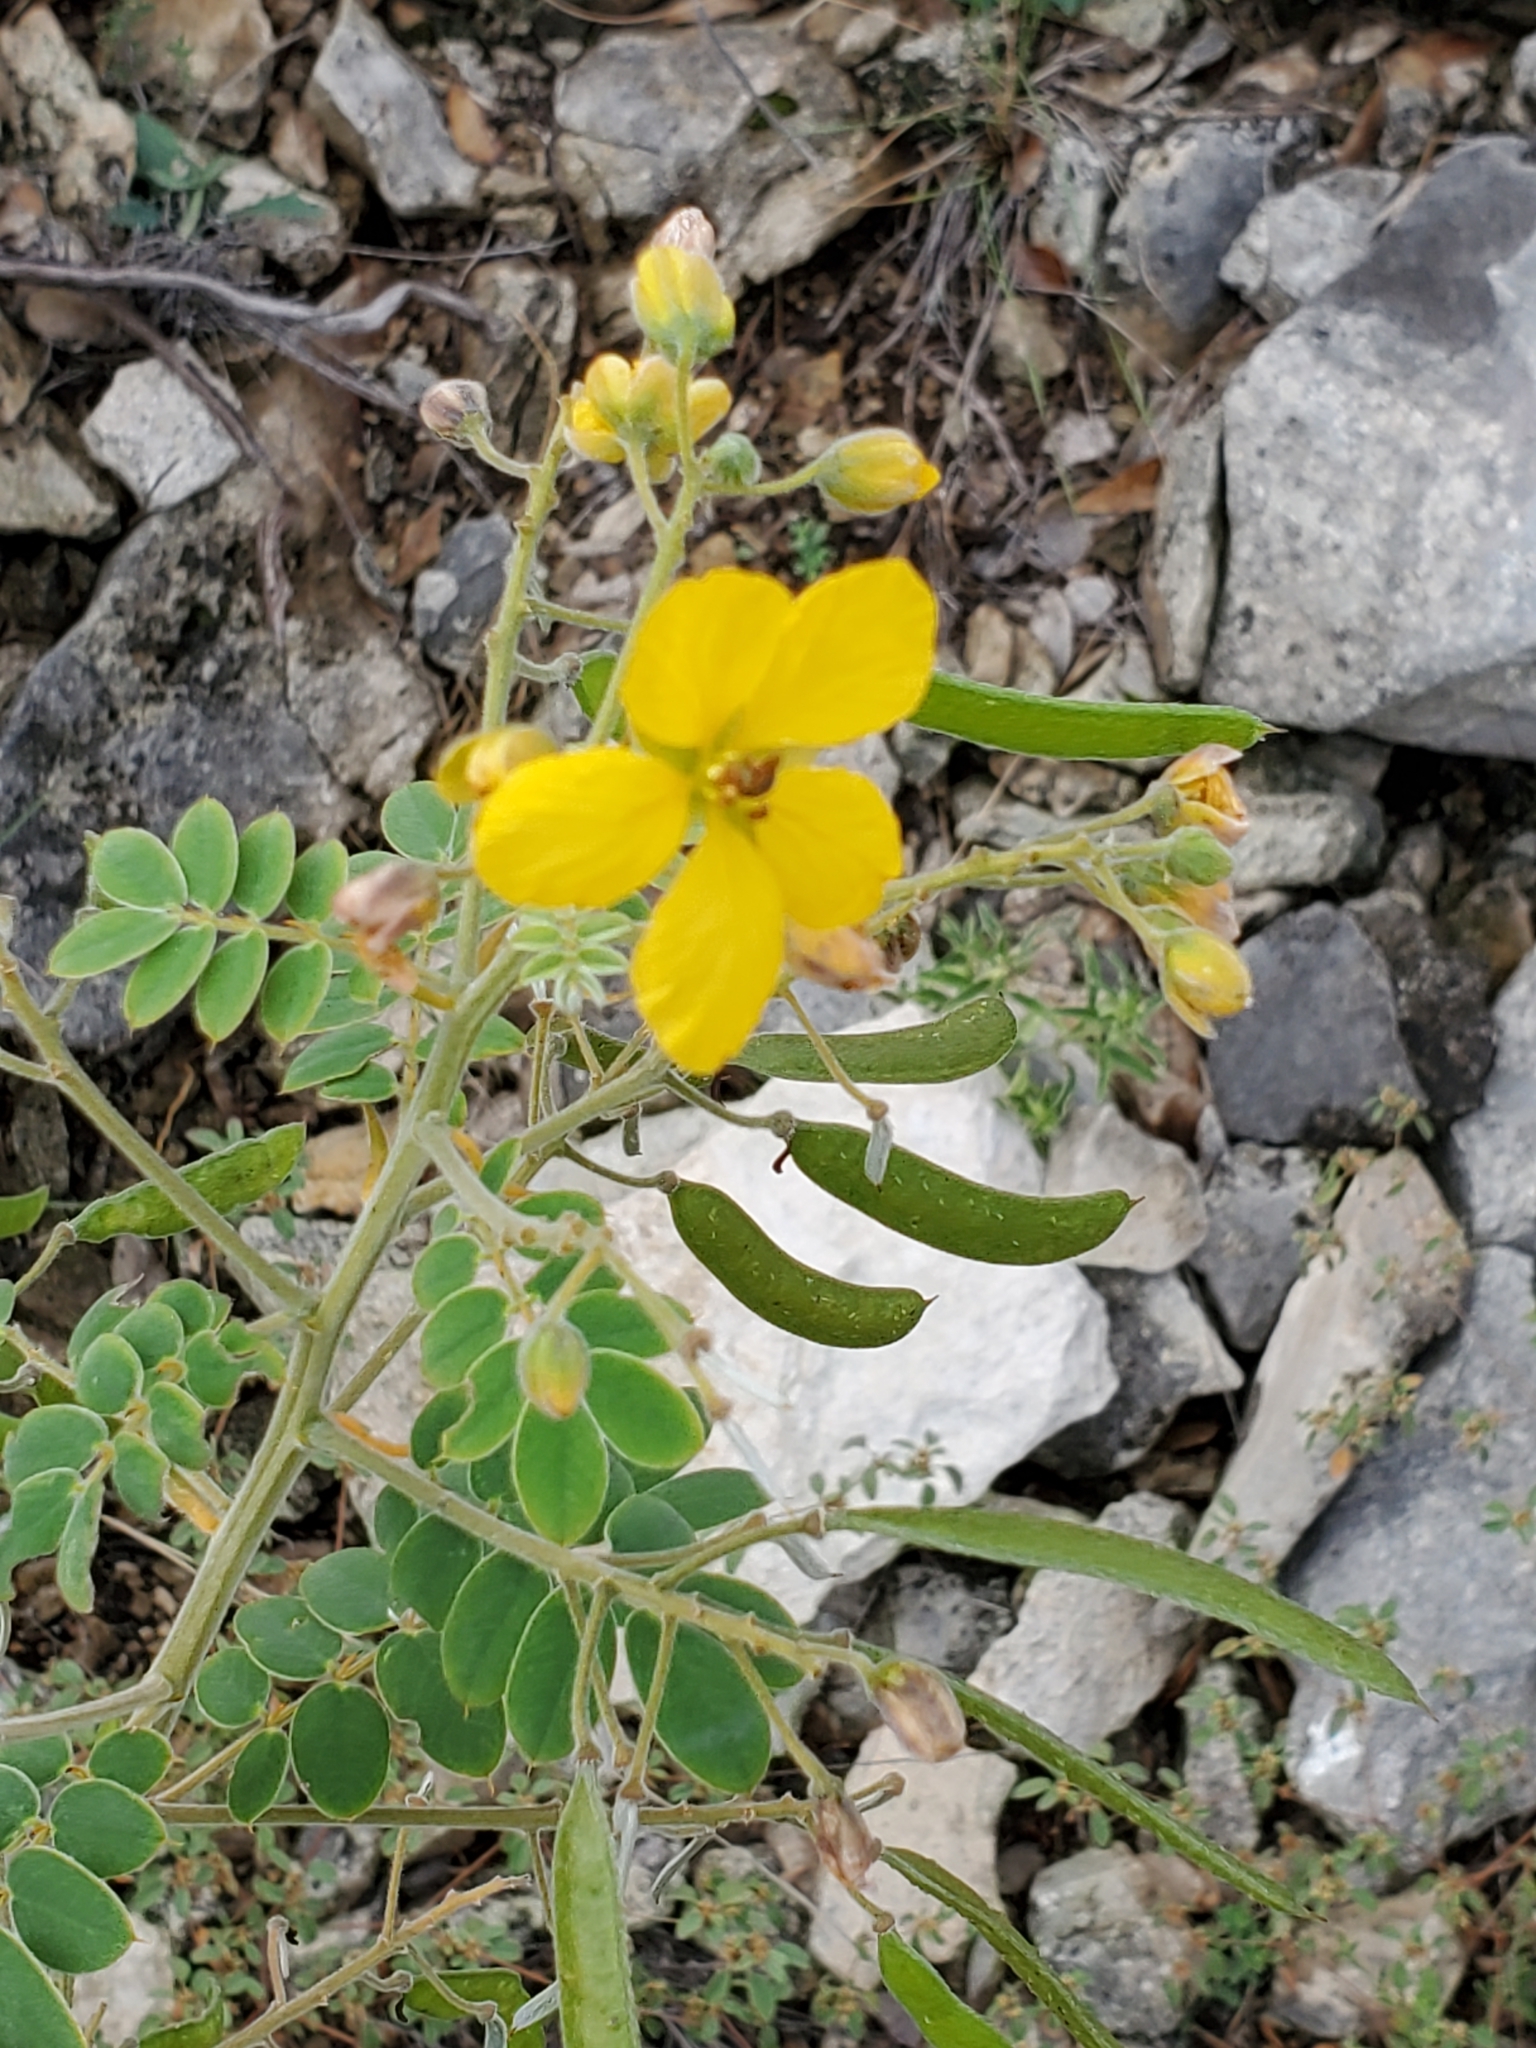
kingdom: Plantae
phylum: Tracheophyta
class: Magnoliopsida
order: Fabales
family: Fabaceae
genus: Senna
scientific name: Senna lindheimeriana
